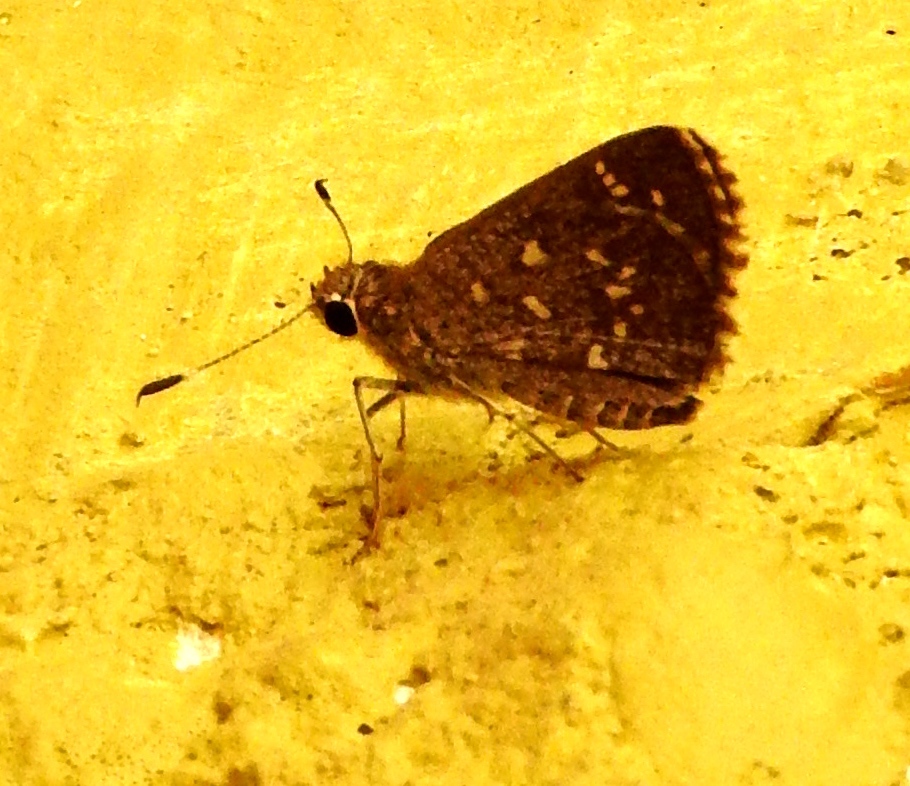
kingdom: Animalia
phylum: Arthropoda
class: Insecta
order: Lepidoptera
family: Hesperiidae
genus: Amblyscirtes
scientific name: Amblyscirtes
